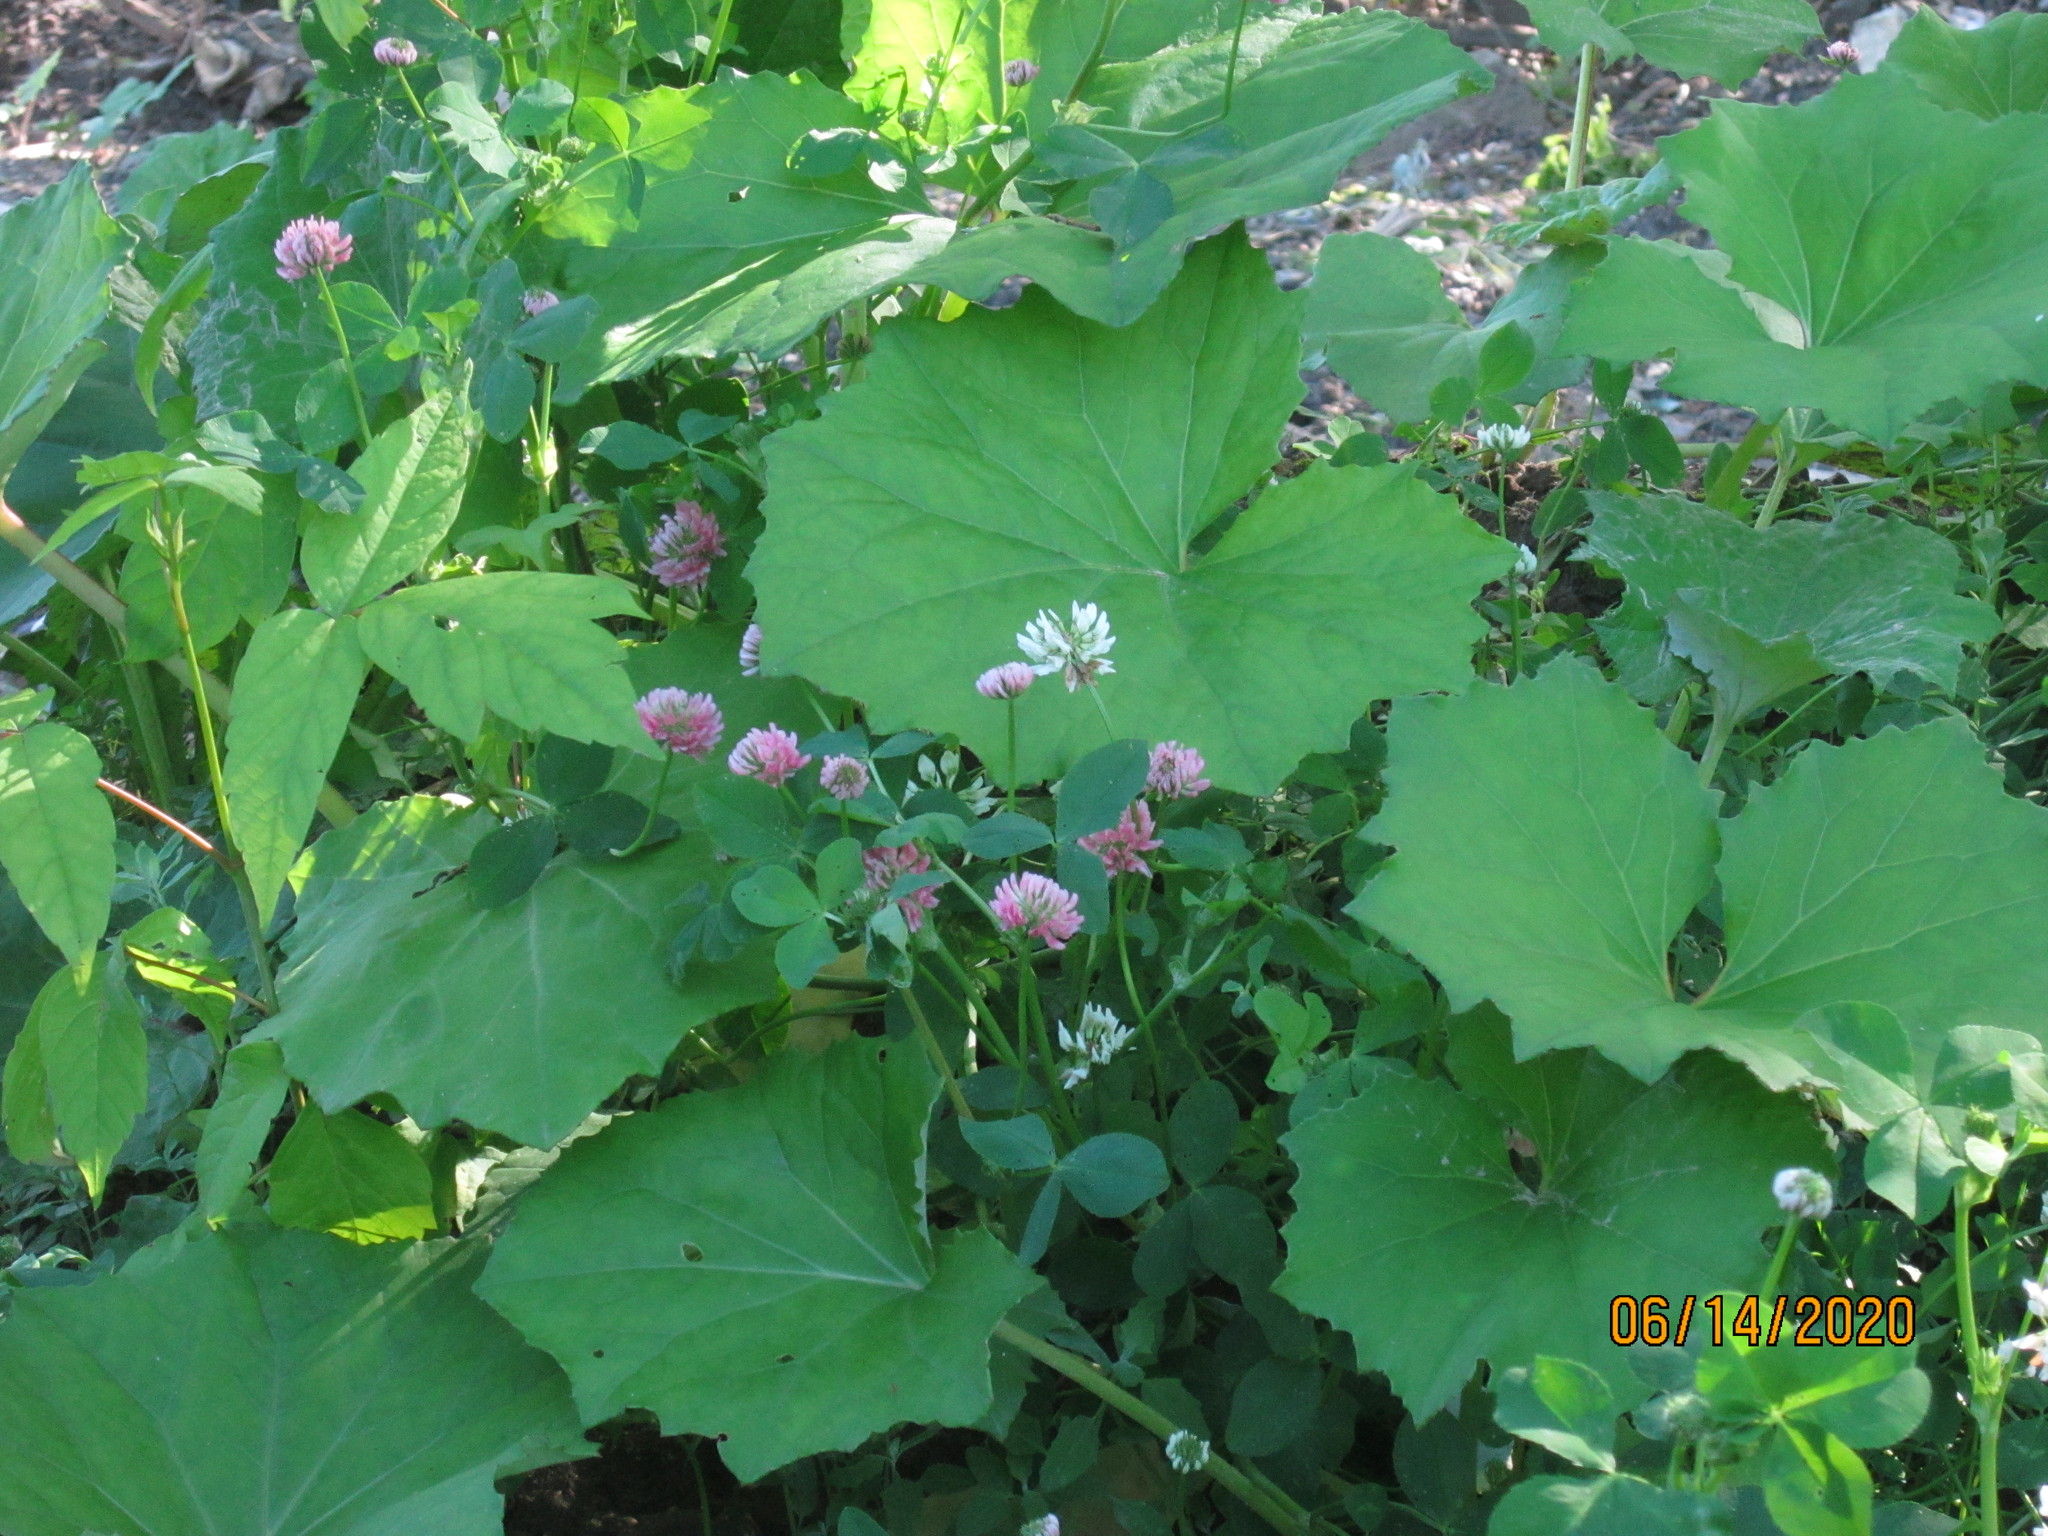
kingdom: Plantae
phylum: Tracheophyta
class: Magnoliopsida
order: Fabales
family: Fabaceae
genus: Trifolium
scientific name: Trifolium hybridum
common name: Alsike clover
